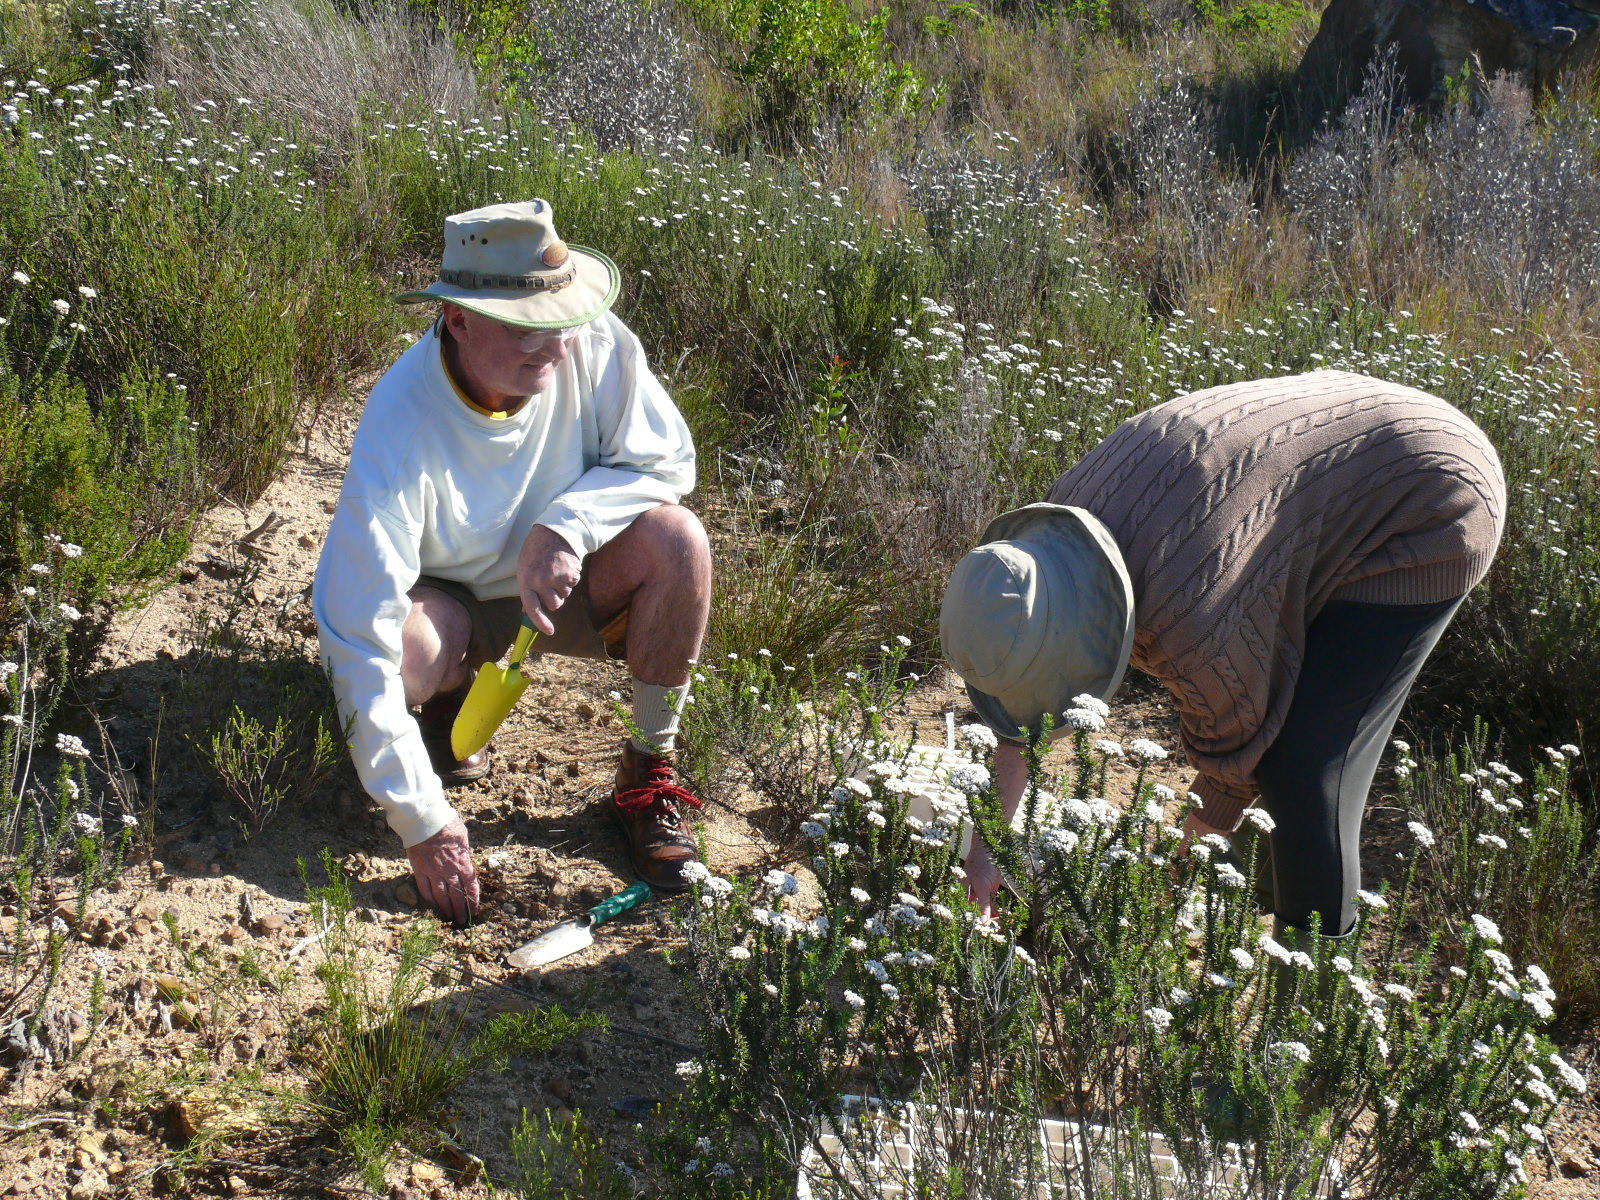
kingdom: Plantae
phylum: Tracheophyta
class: Magnoliopsida
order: Asterales
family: Asteraceae
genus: Metalasia
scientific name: Metalasia densa
